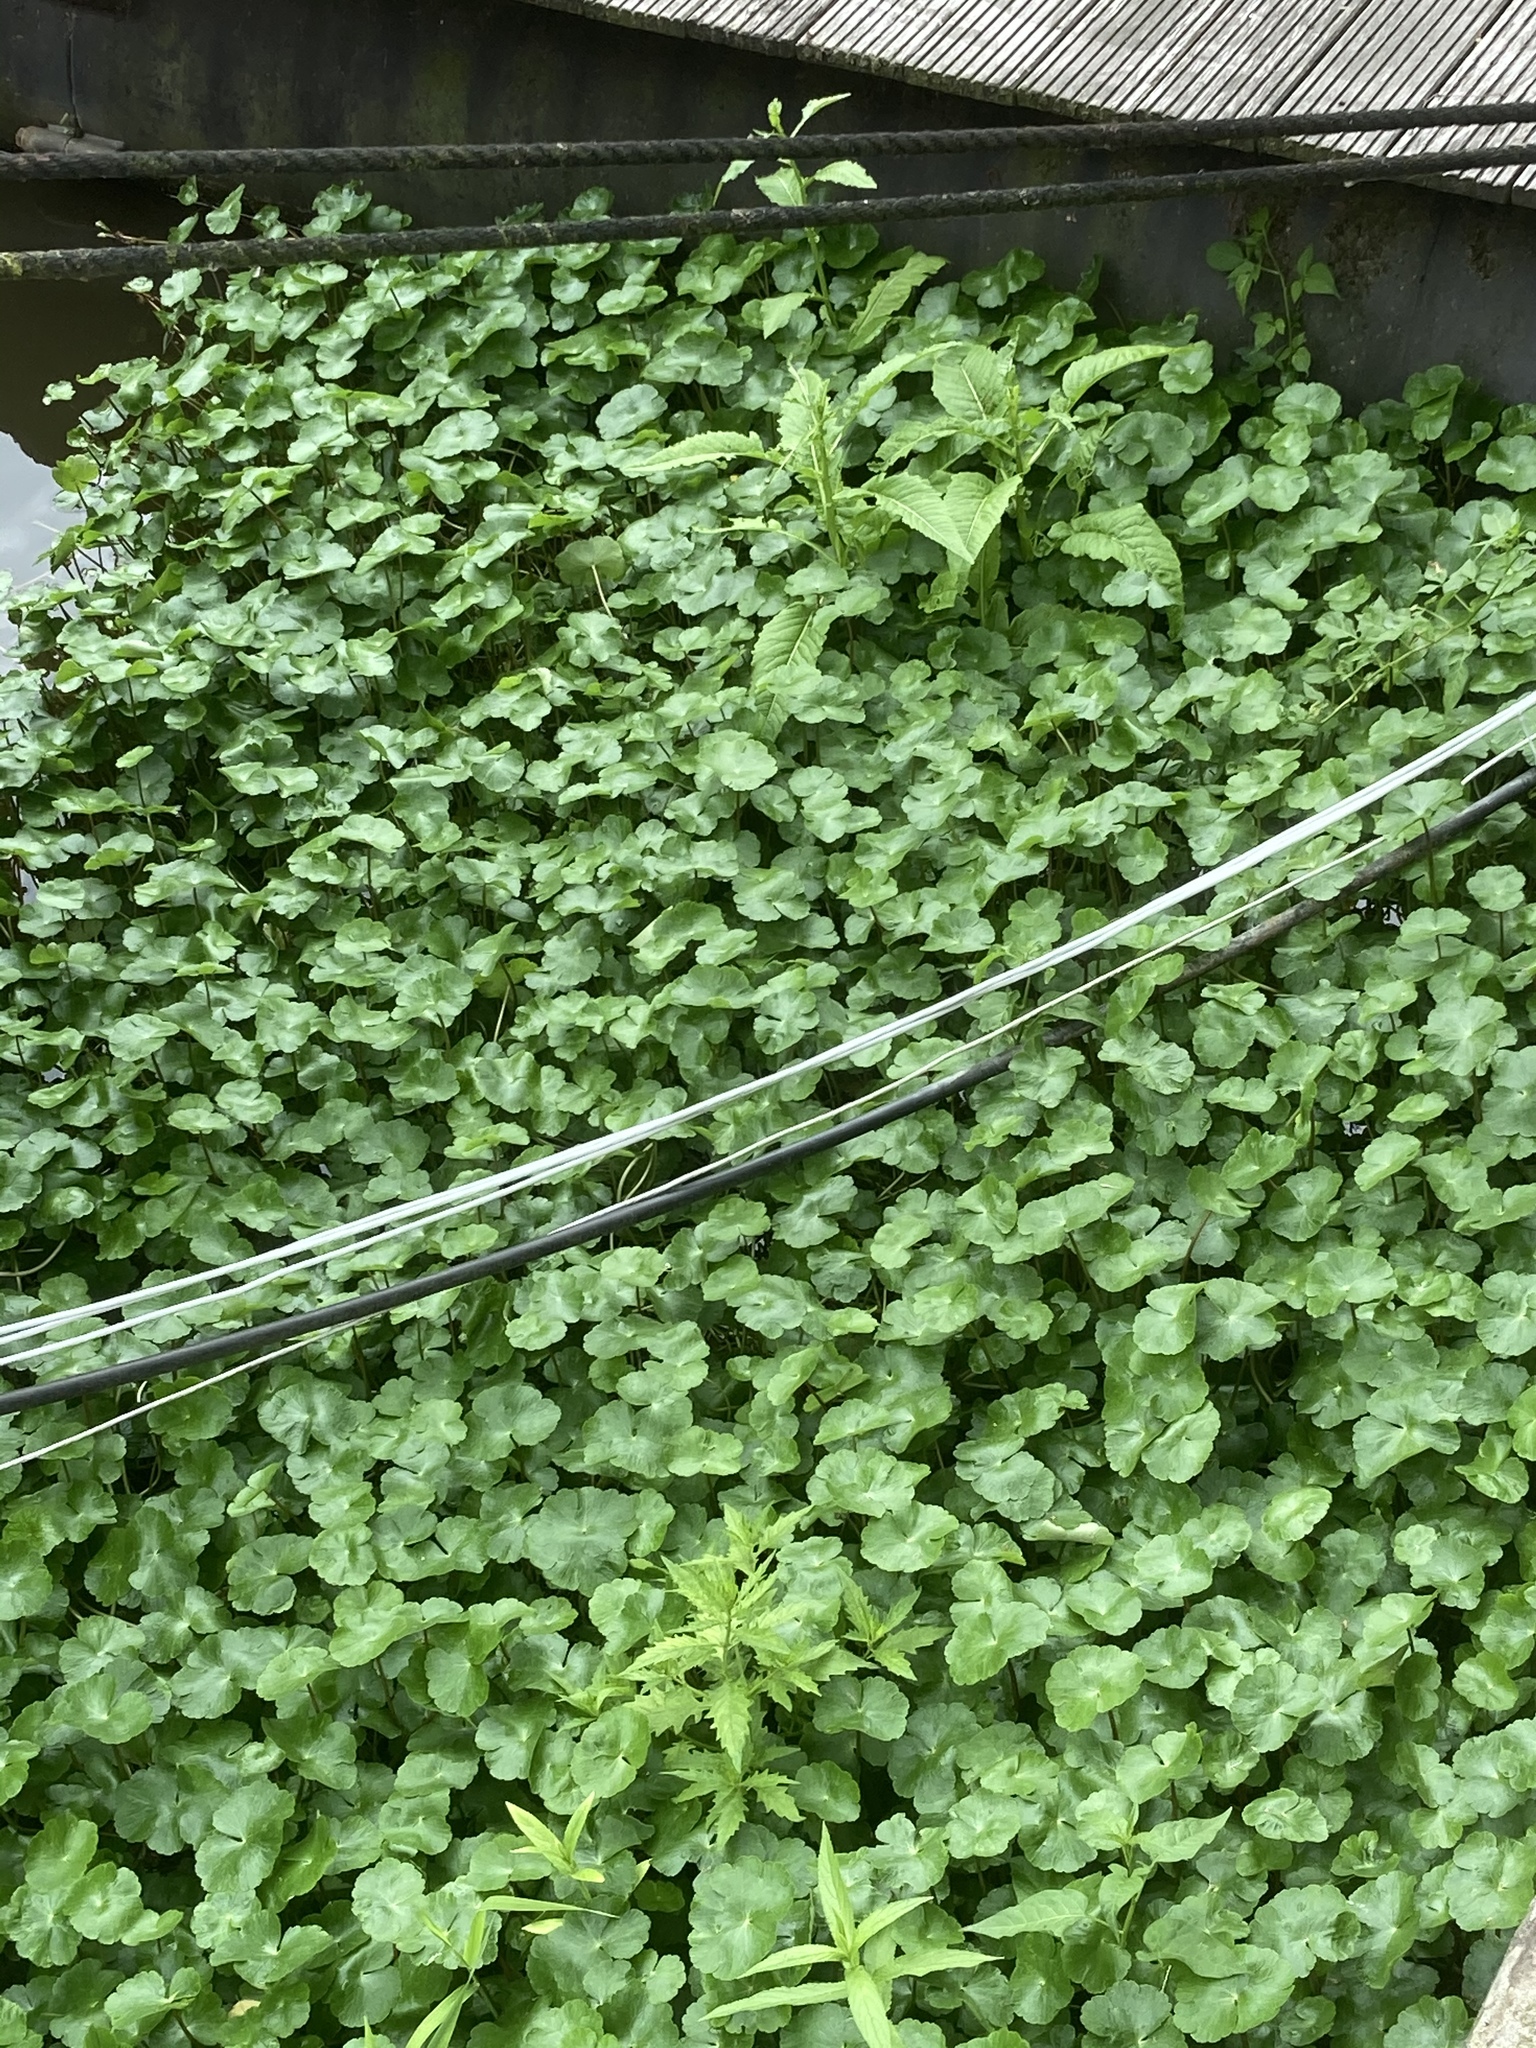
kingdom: Plantae
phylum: Tracheophyta
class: Magnoliopsida
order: Apiales
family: Araliaceae
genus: Hydrocotyle
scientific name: Hydrocotyle ranunculoides
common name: Floating pennywort
